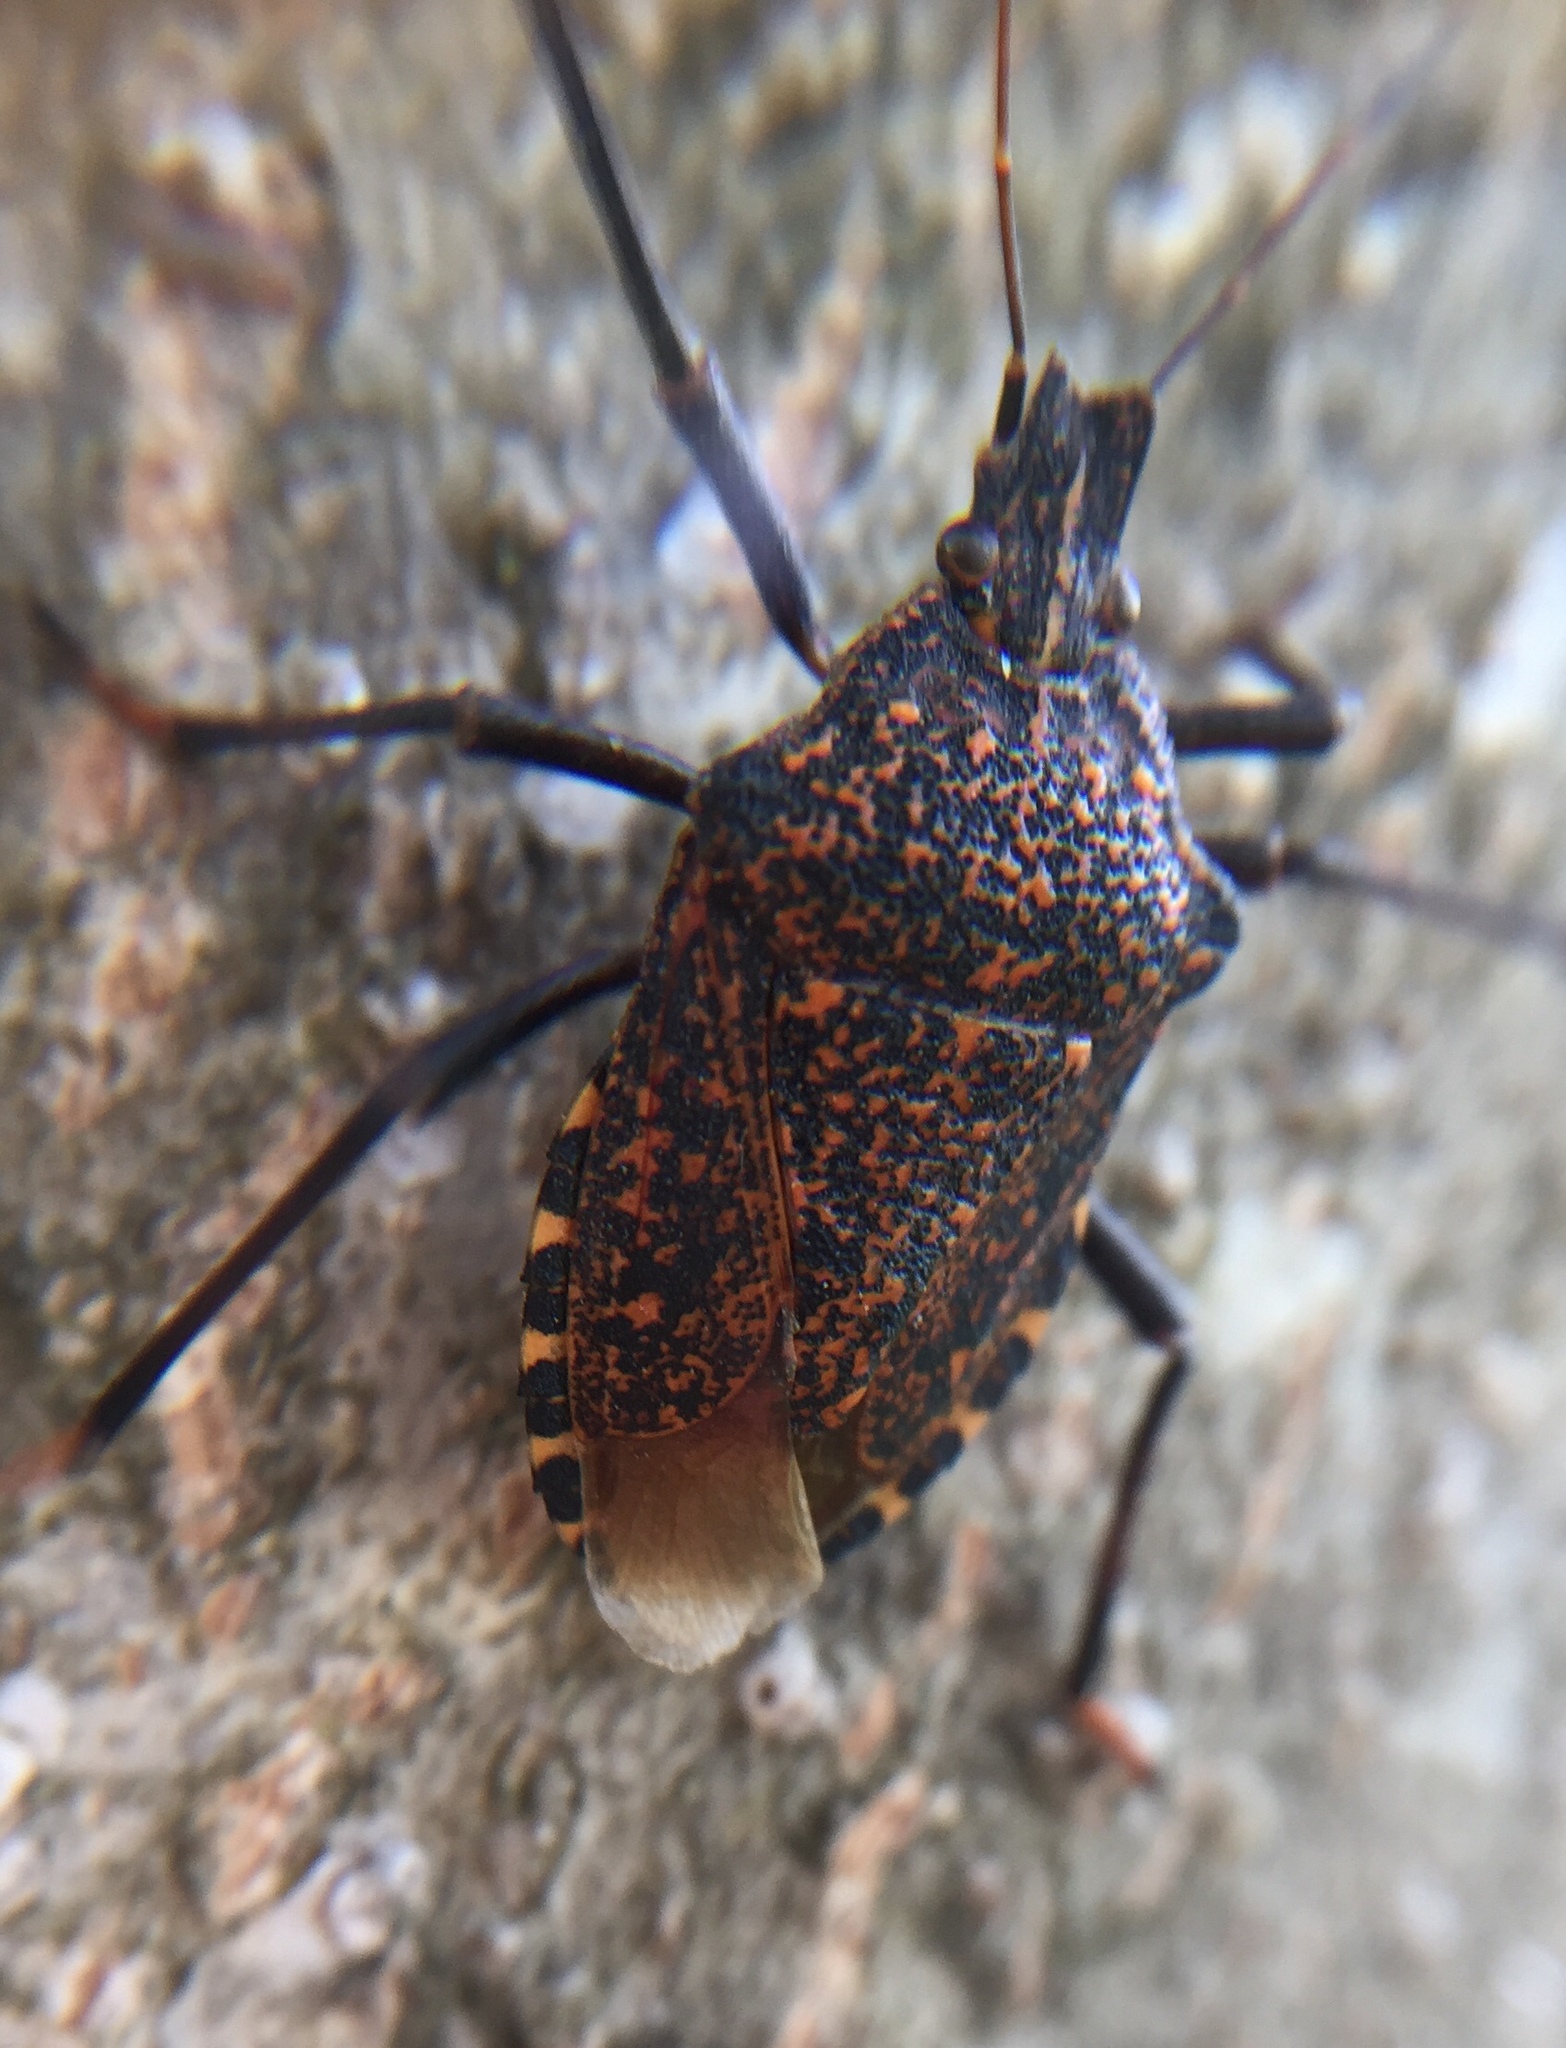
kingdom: Animalia
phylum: Arthropoda
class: Insecta
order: Hemiptera
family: Pentatomidae
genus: Apodiphus
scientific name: Apodiphus amygdali
